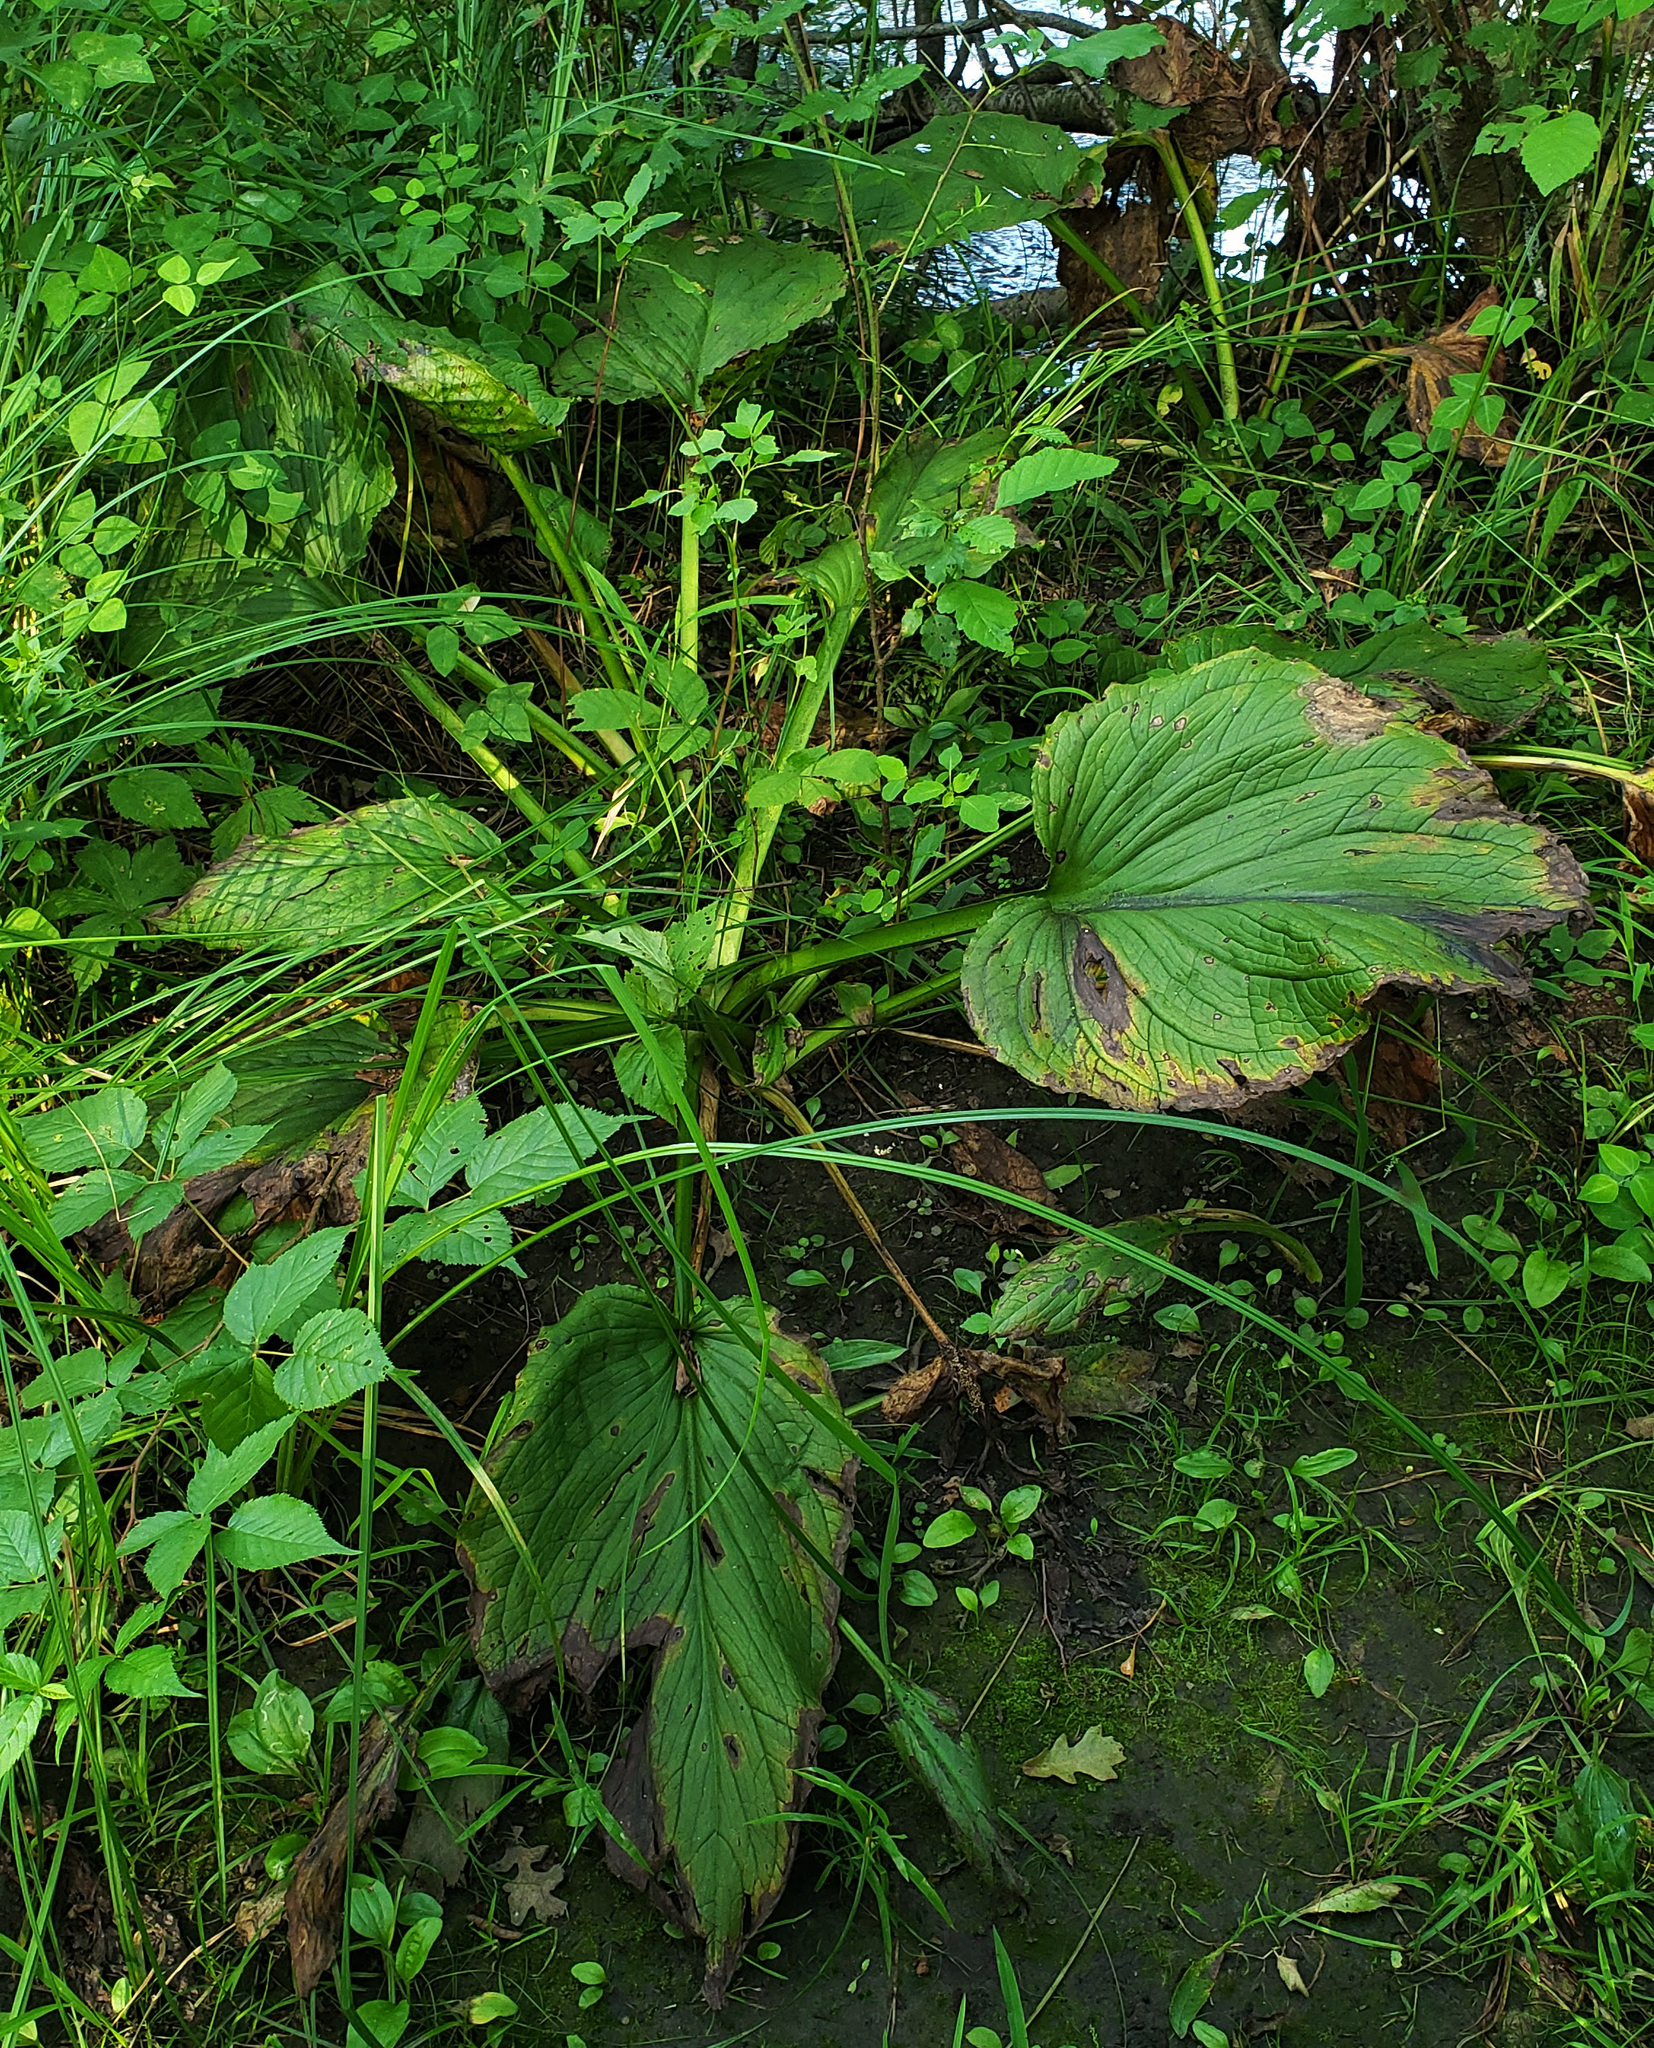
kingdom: Plantae
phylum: Tracheophyta
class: Liliopsida
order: Alismatales
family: Araceae
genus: Symplocarpus
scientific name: Symplocarpus foetidus
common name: Eastern skunk cabbage
